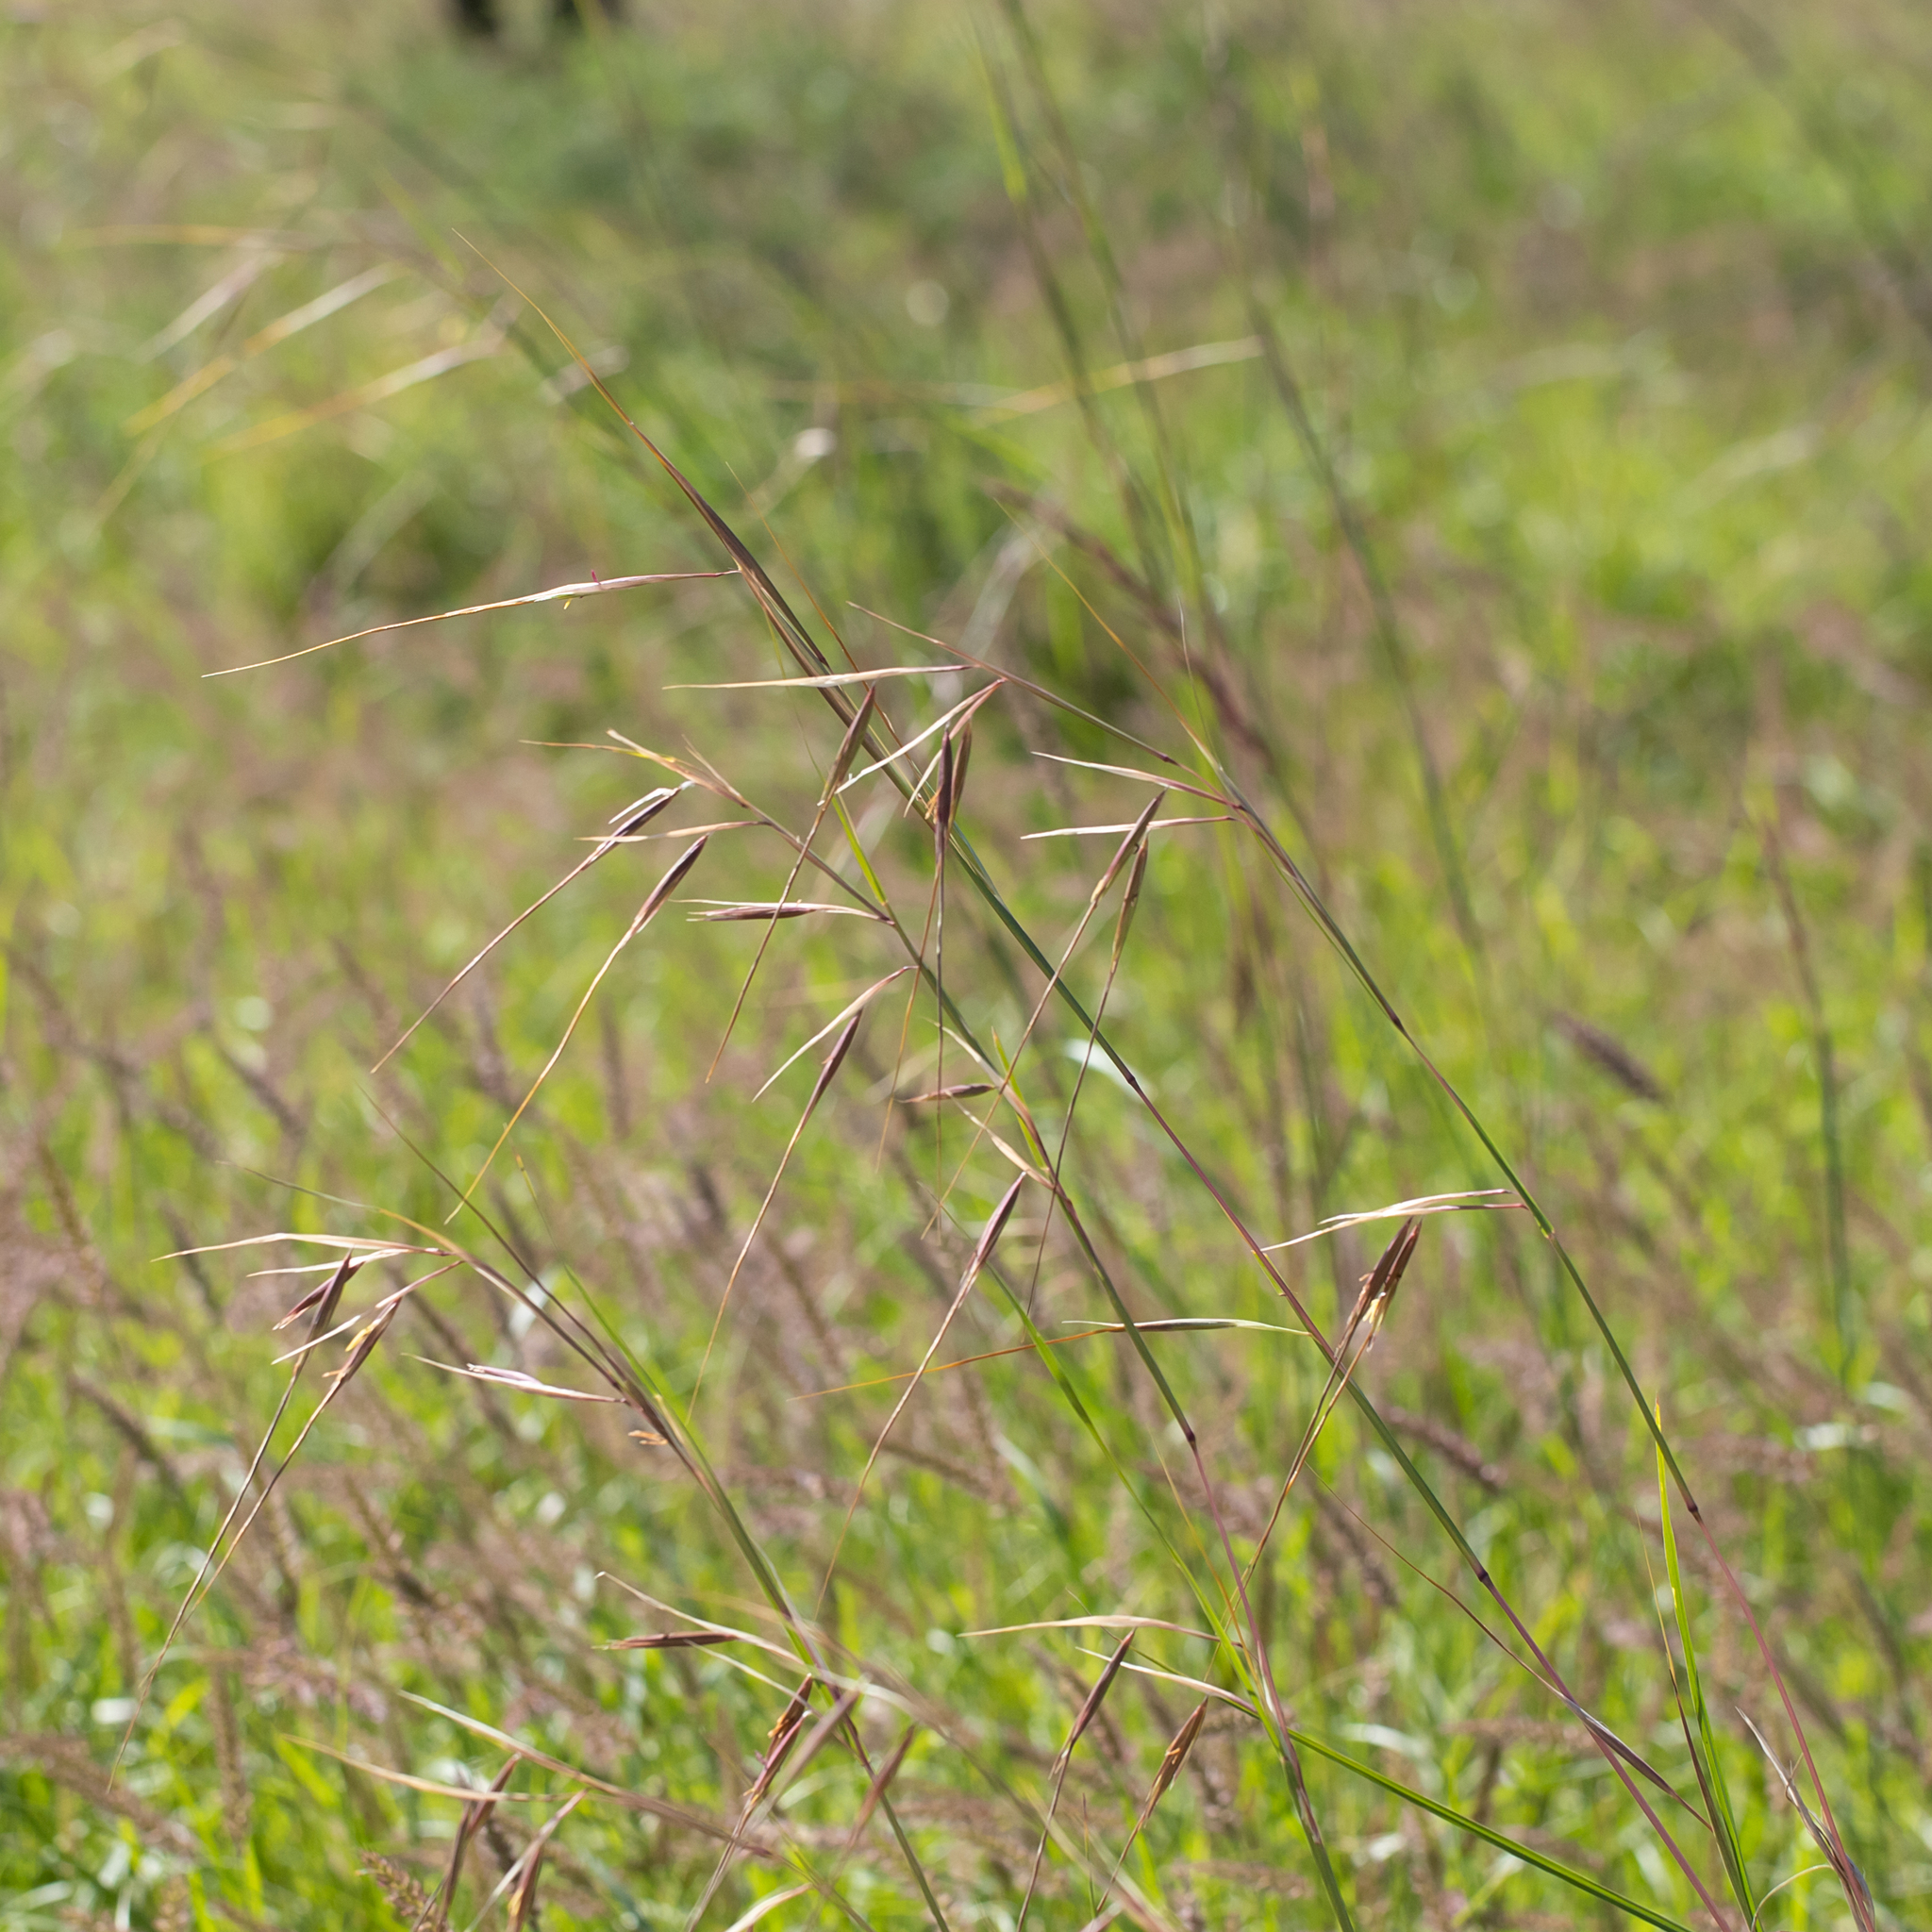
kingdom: Plantae
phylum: Tracheophyta
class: Liliopsida
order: Poales
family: Poaceae
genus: Themeda
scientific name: Themeda avenacea
